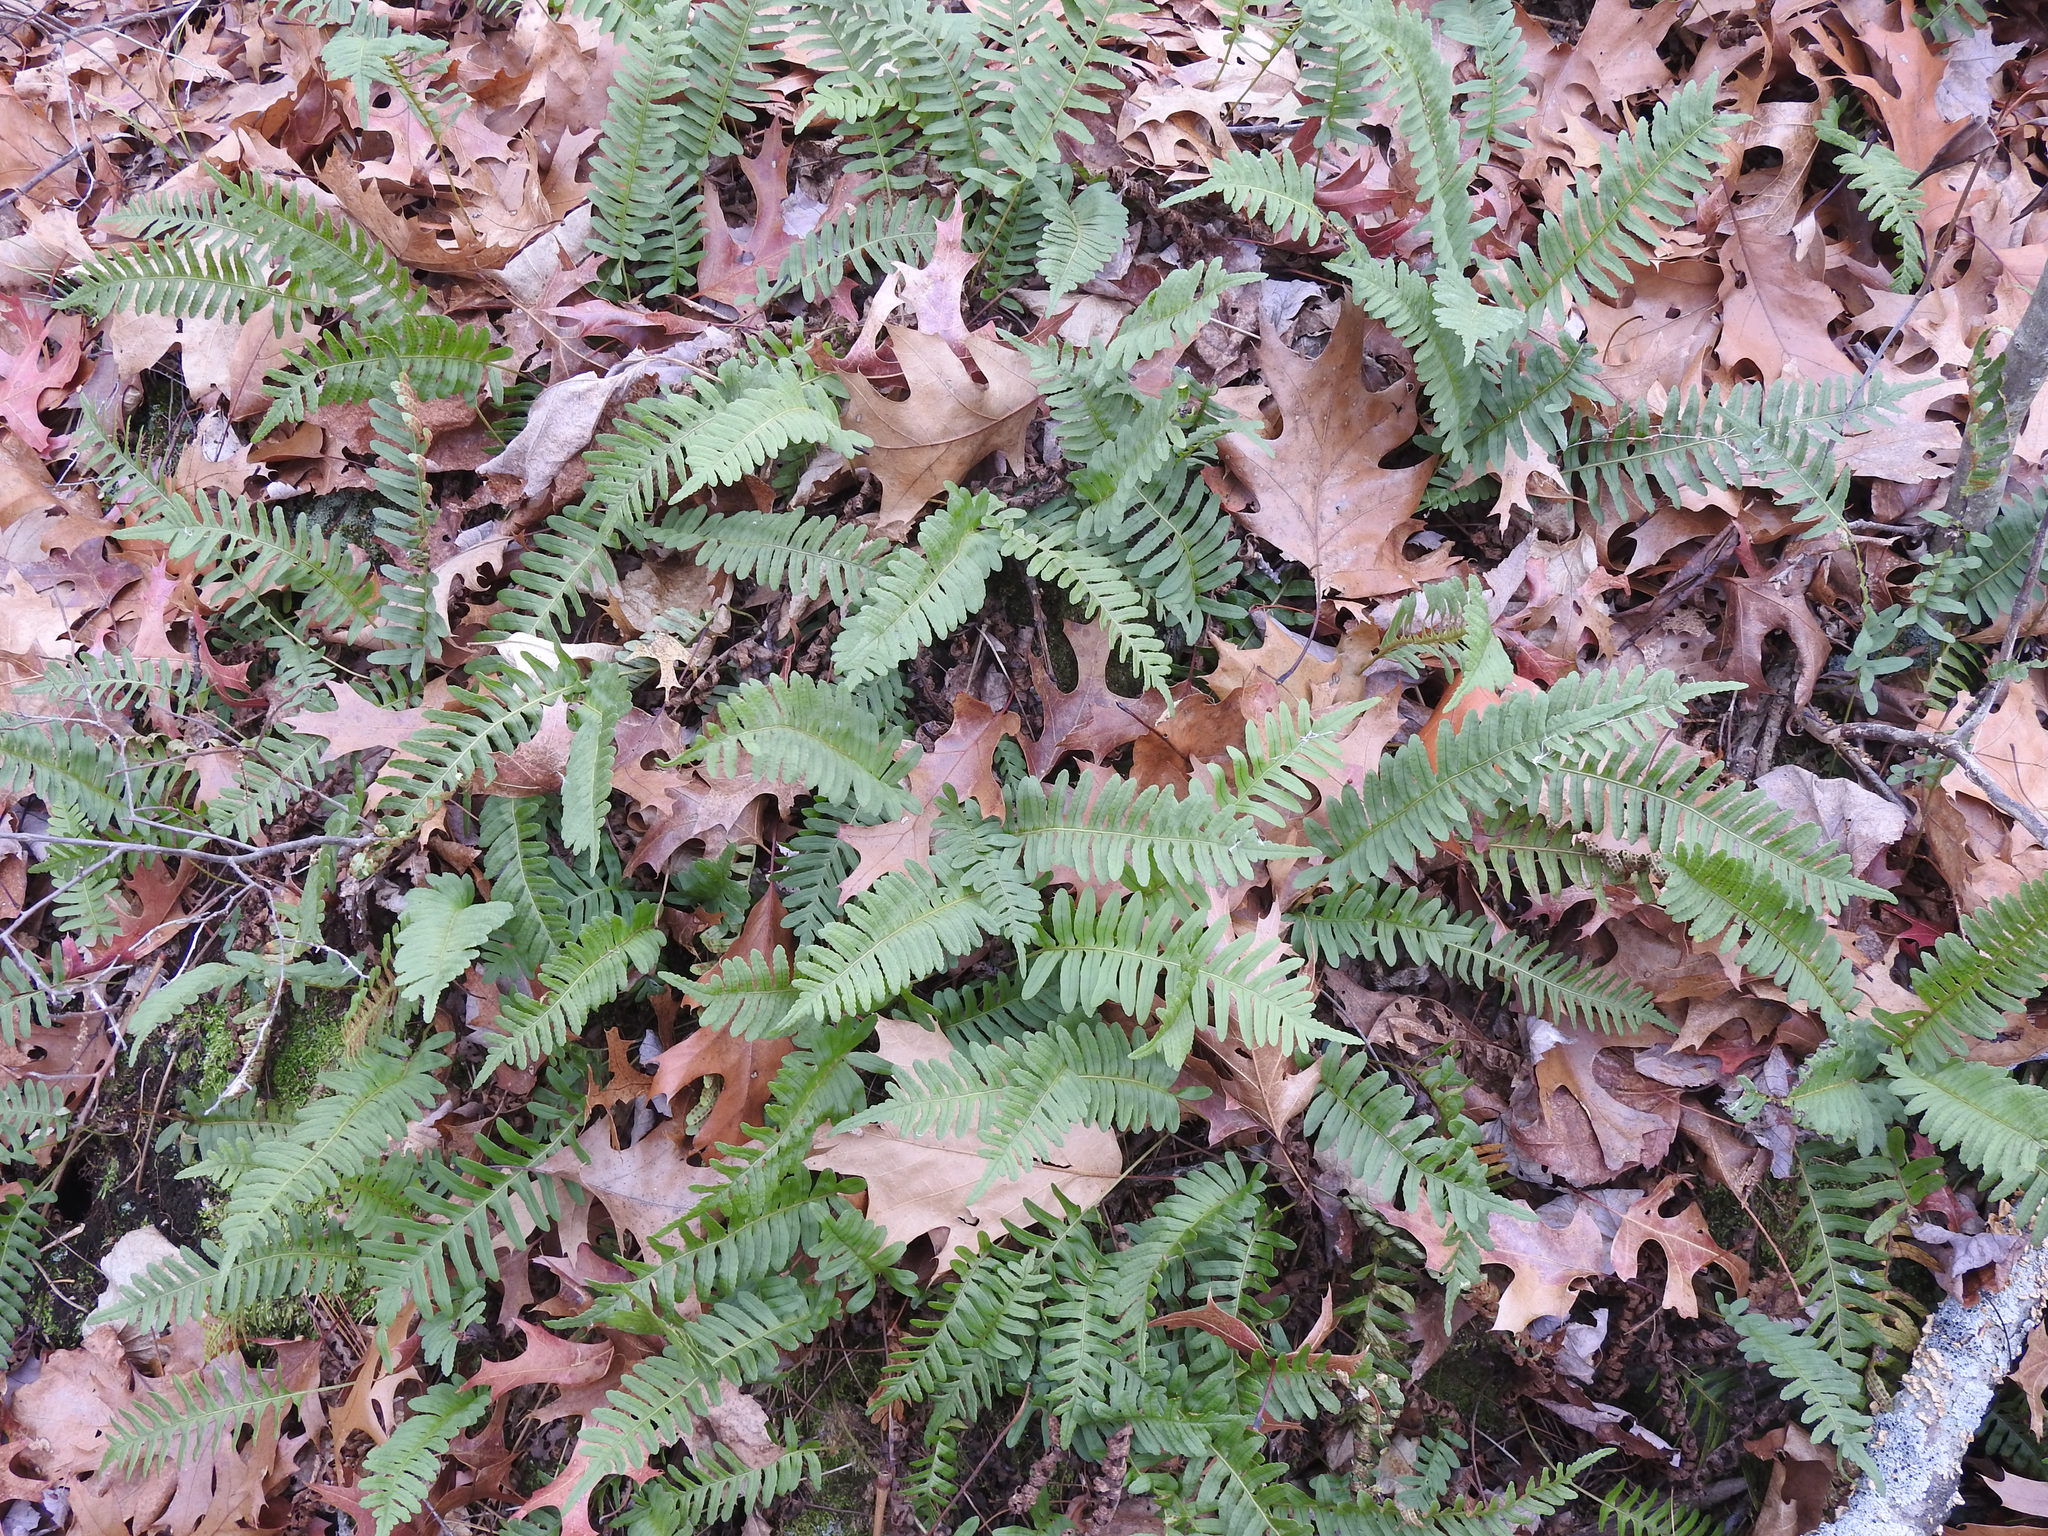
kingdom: Plantae
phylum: Tracheophyta
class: Polypodiopsida
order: Polypodiales
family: Polypodiaceae
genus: Polypodium
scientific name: Polypodium virginianum
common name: American wall fern
